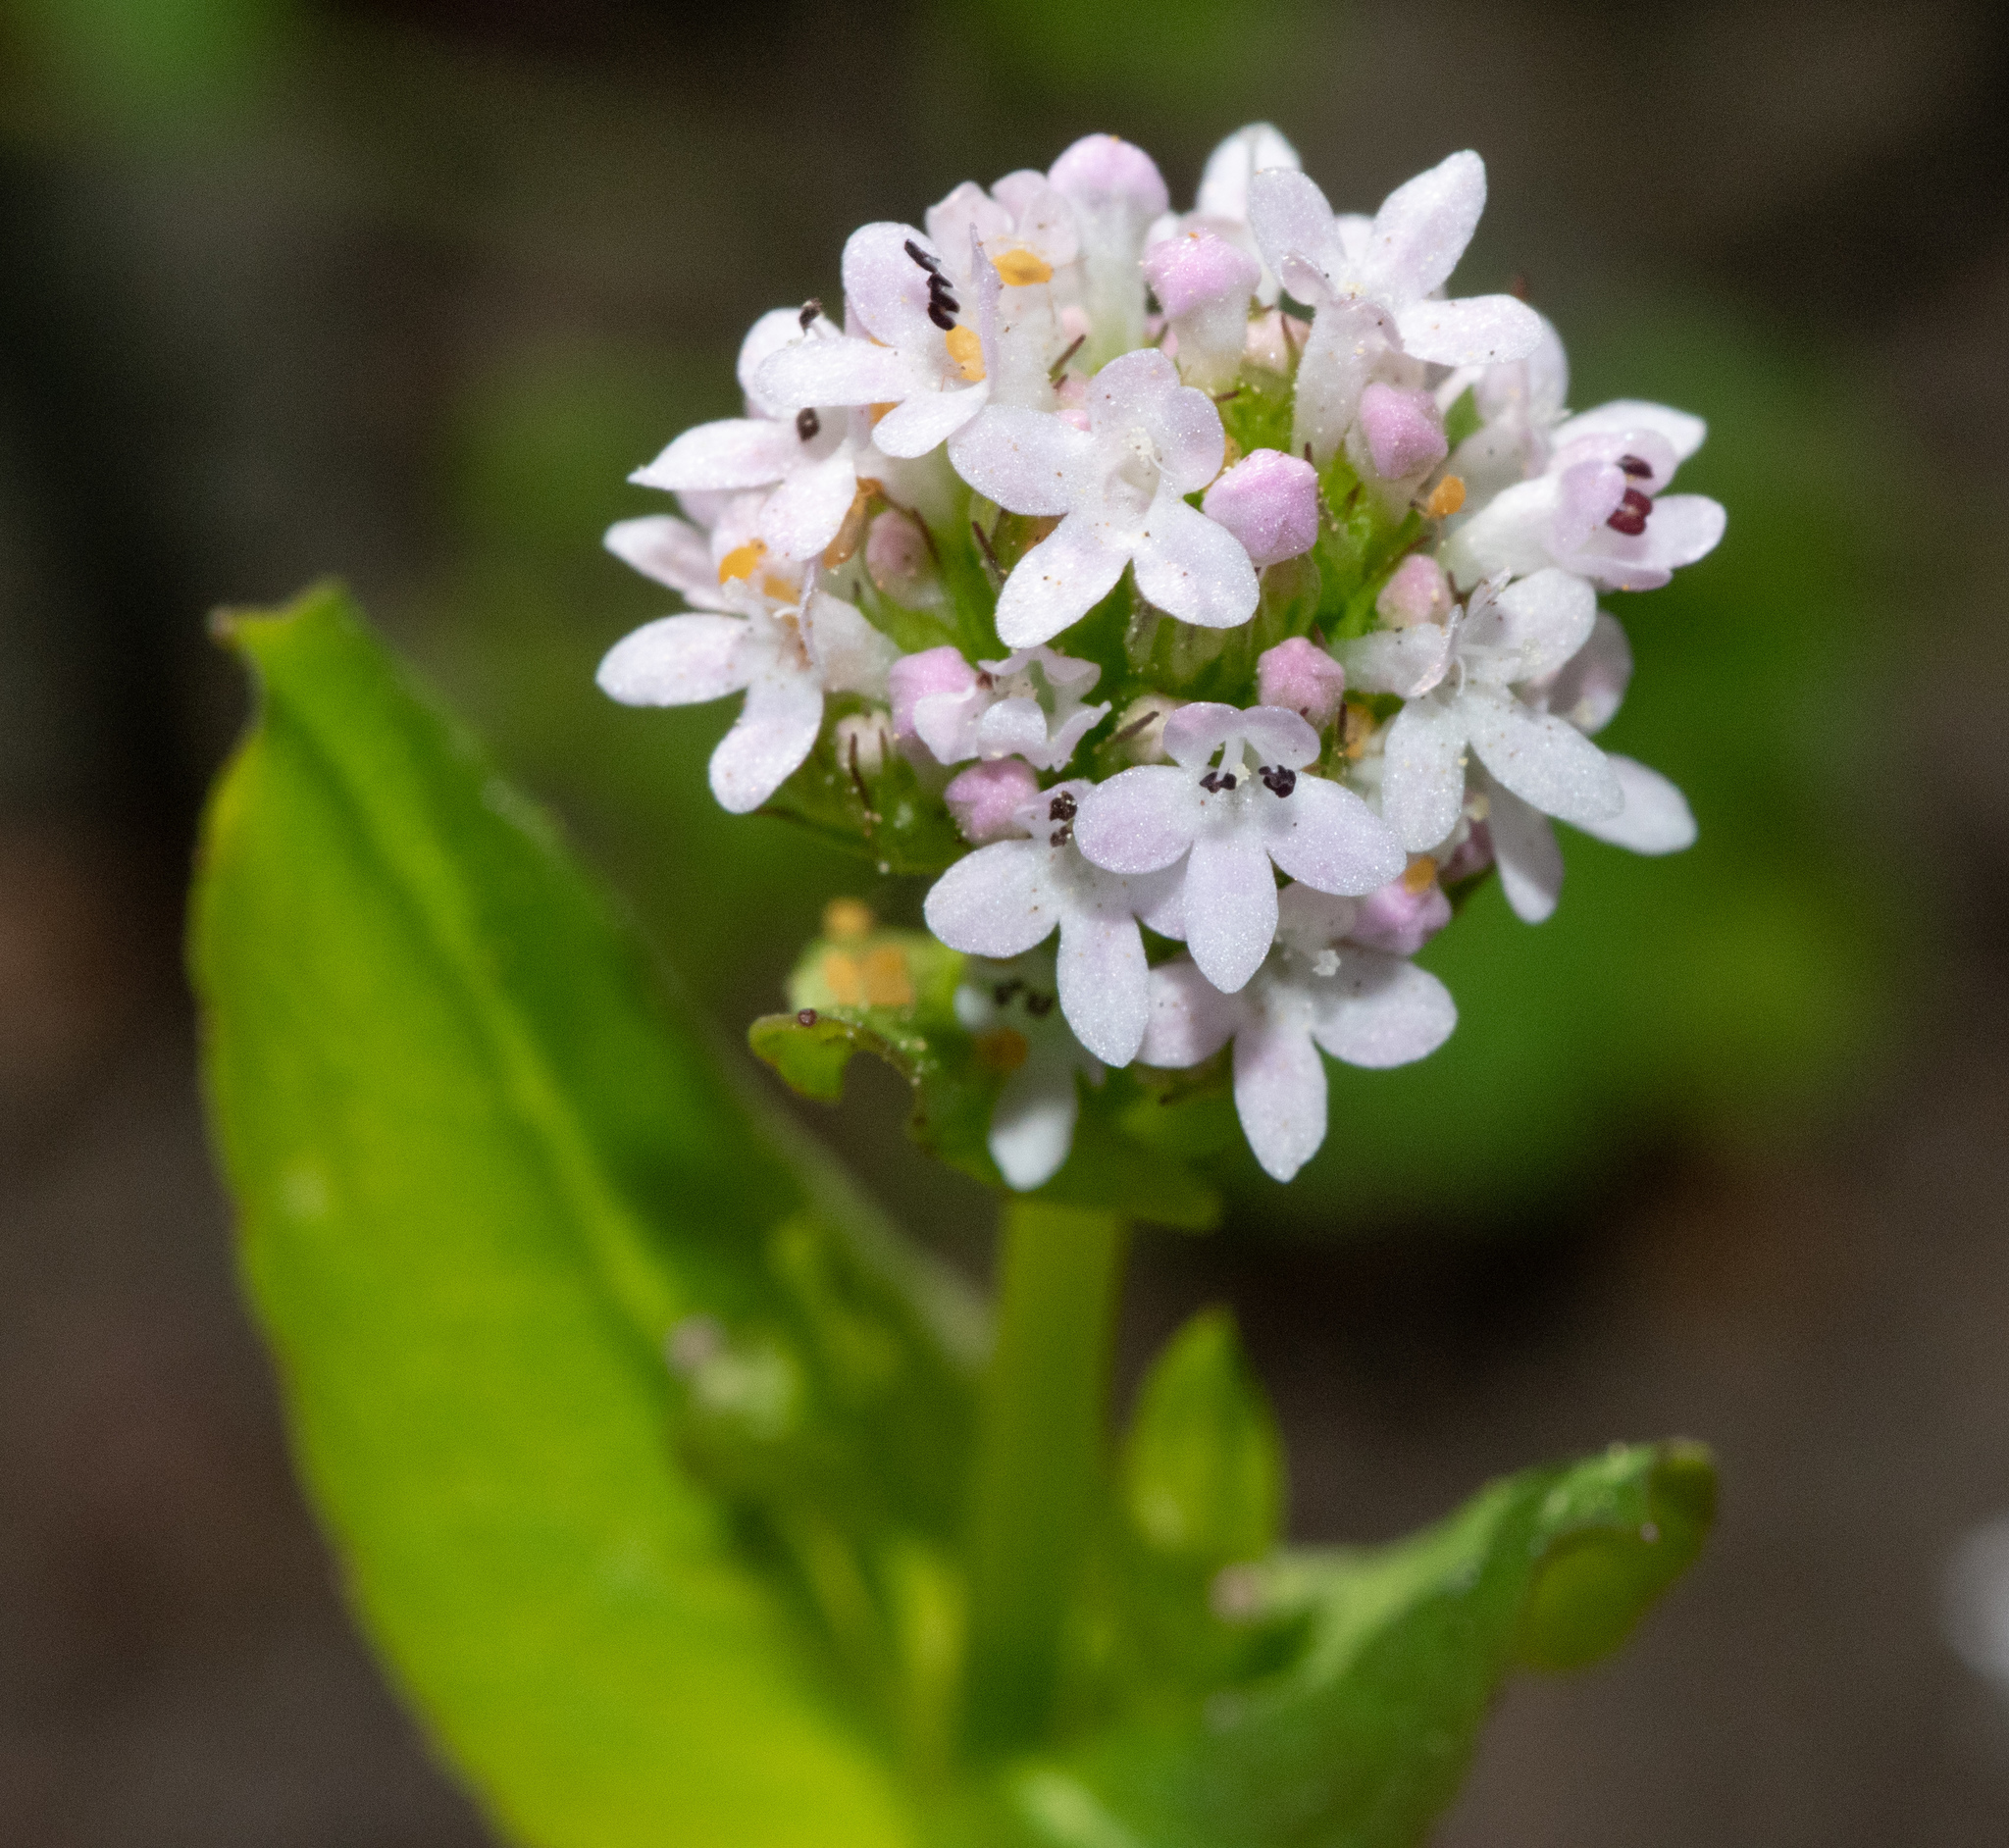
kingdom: Plantae
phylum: Tracheophyta
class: Magnoliopsida
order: Dipsacales
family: Caprifoliaceae
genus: Plectritis
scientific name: Plectritis brachystemon
